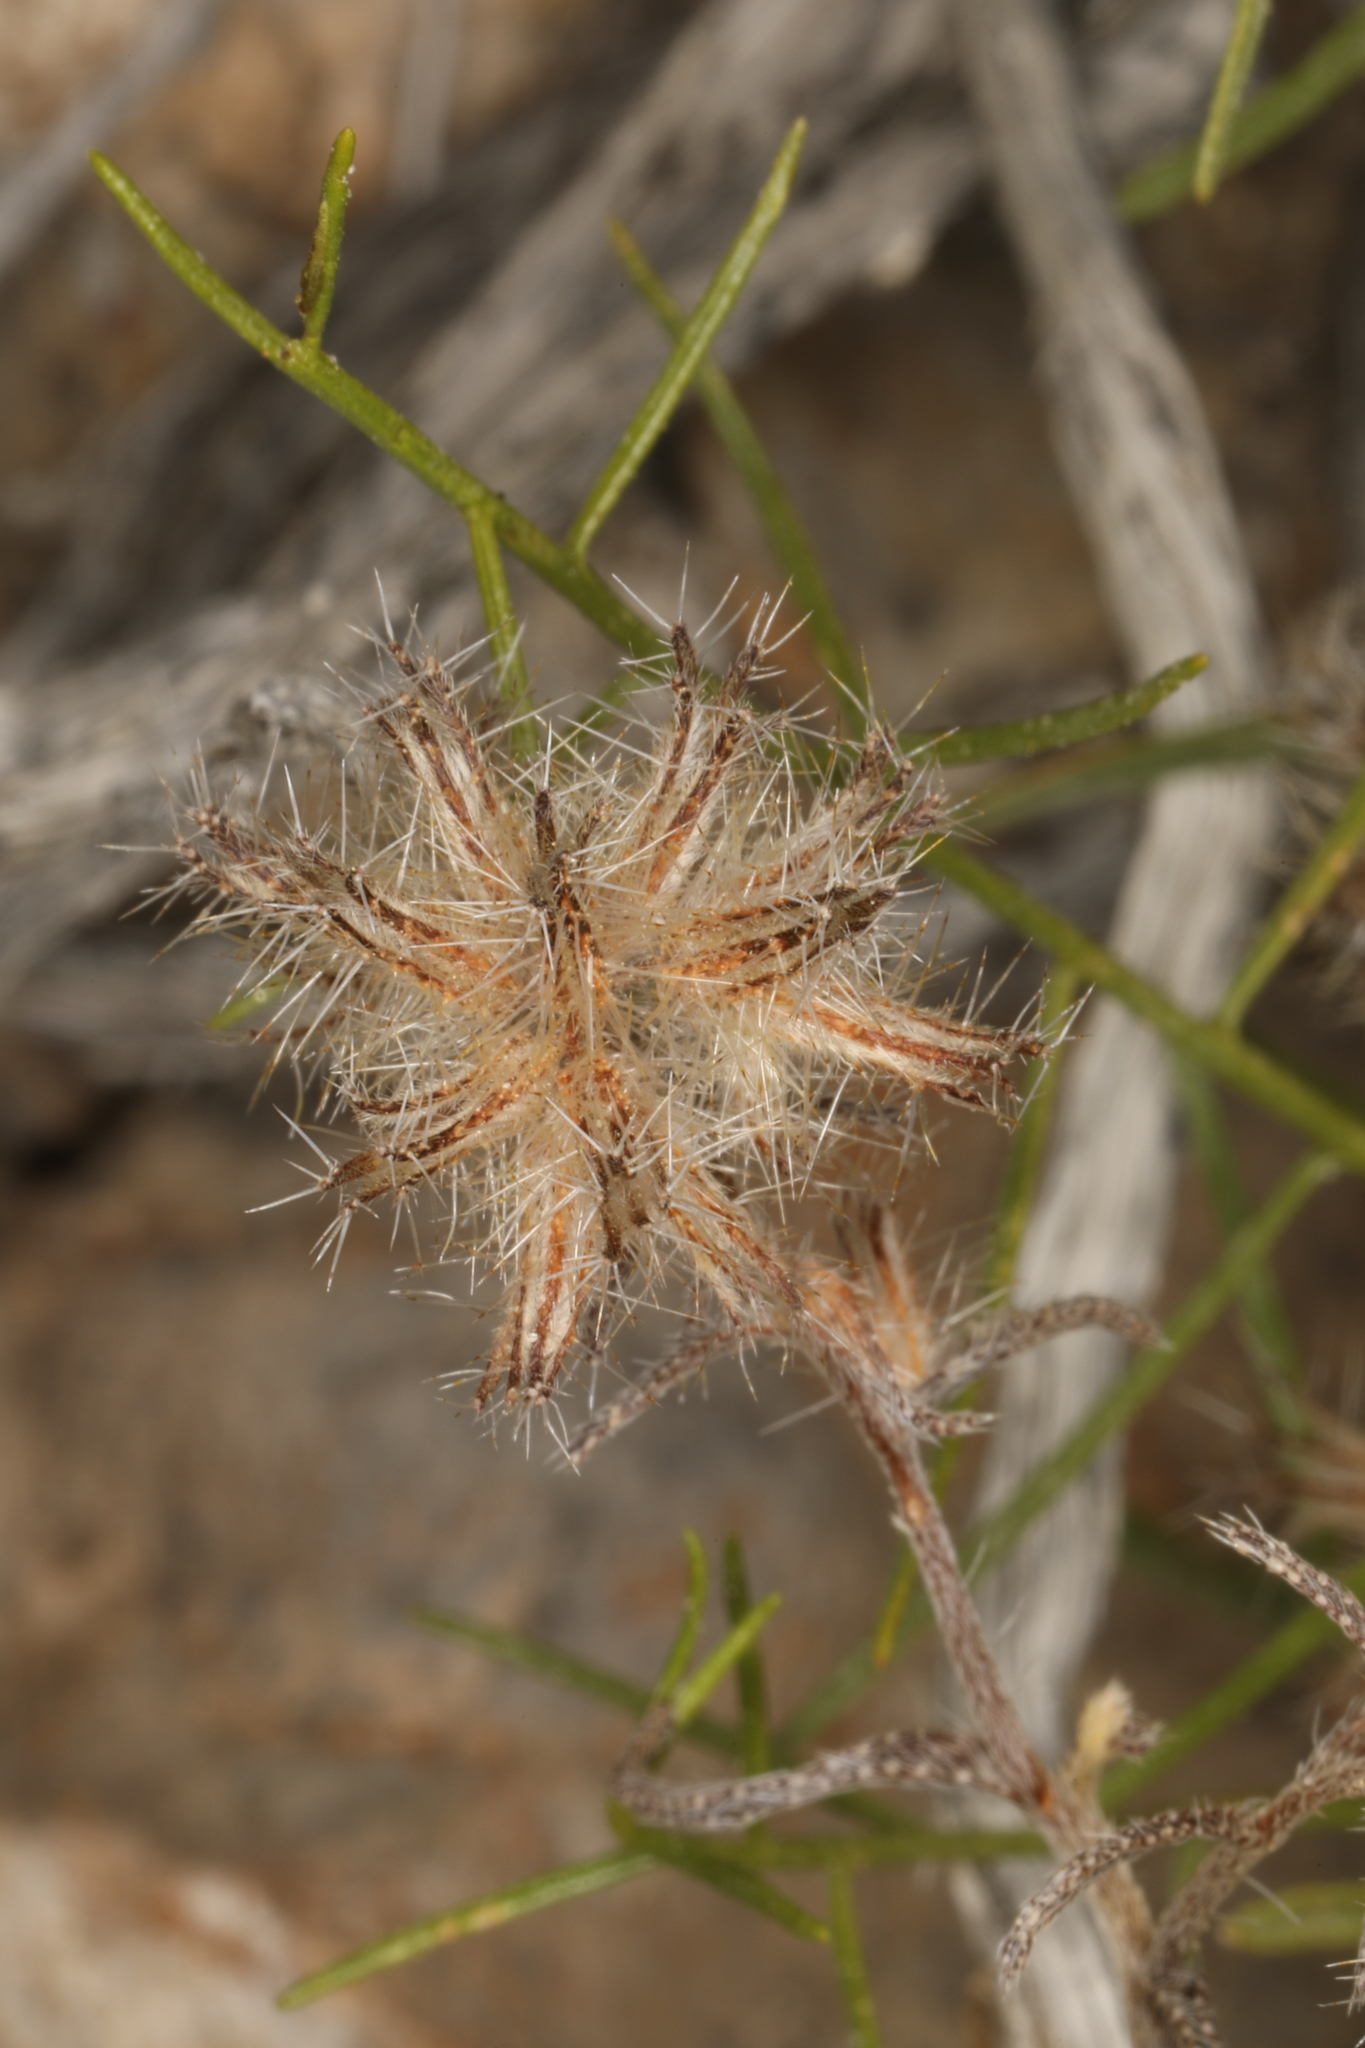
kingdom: Plantae
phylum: Tracheophyta
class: Magnoliopsida
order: Boraginales
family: Boraginaceae
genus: Cryptantha
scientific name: Cryptantha nevadensis
